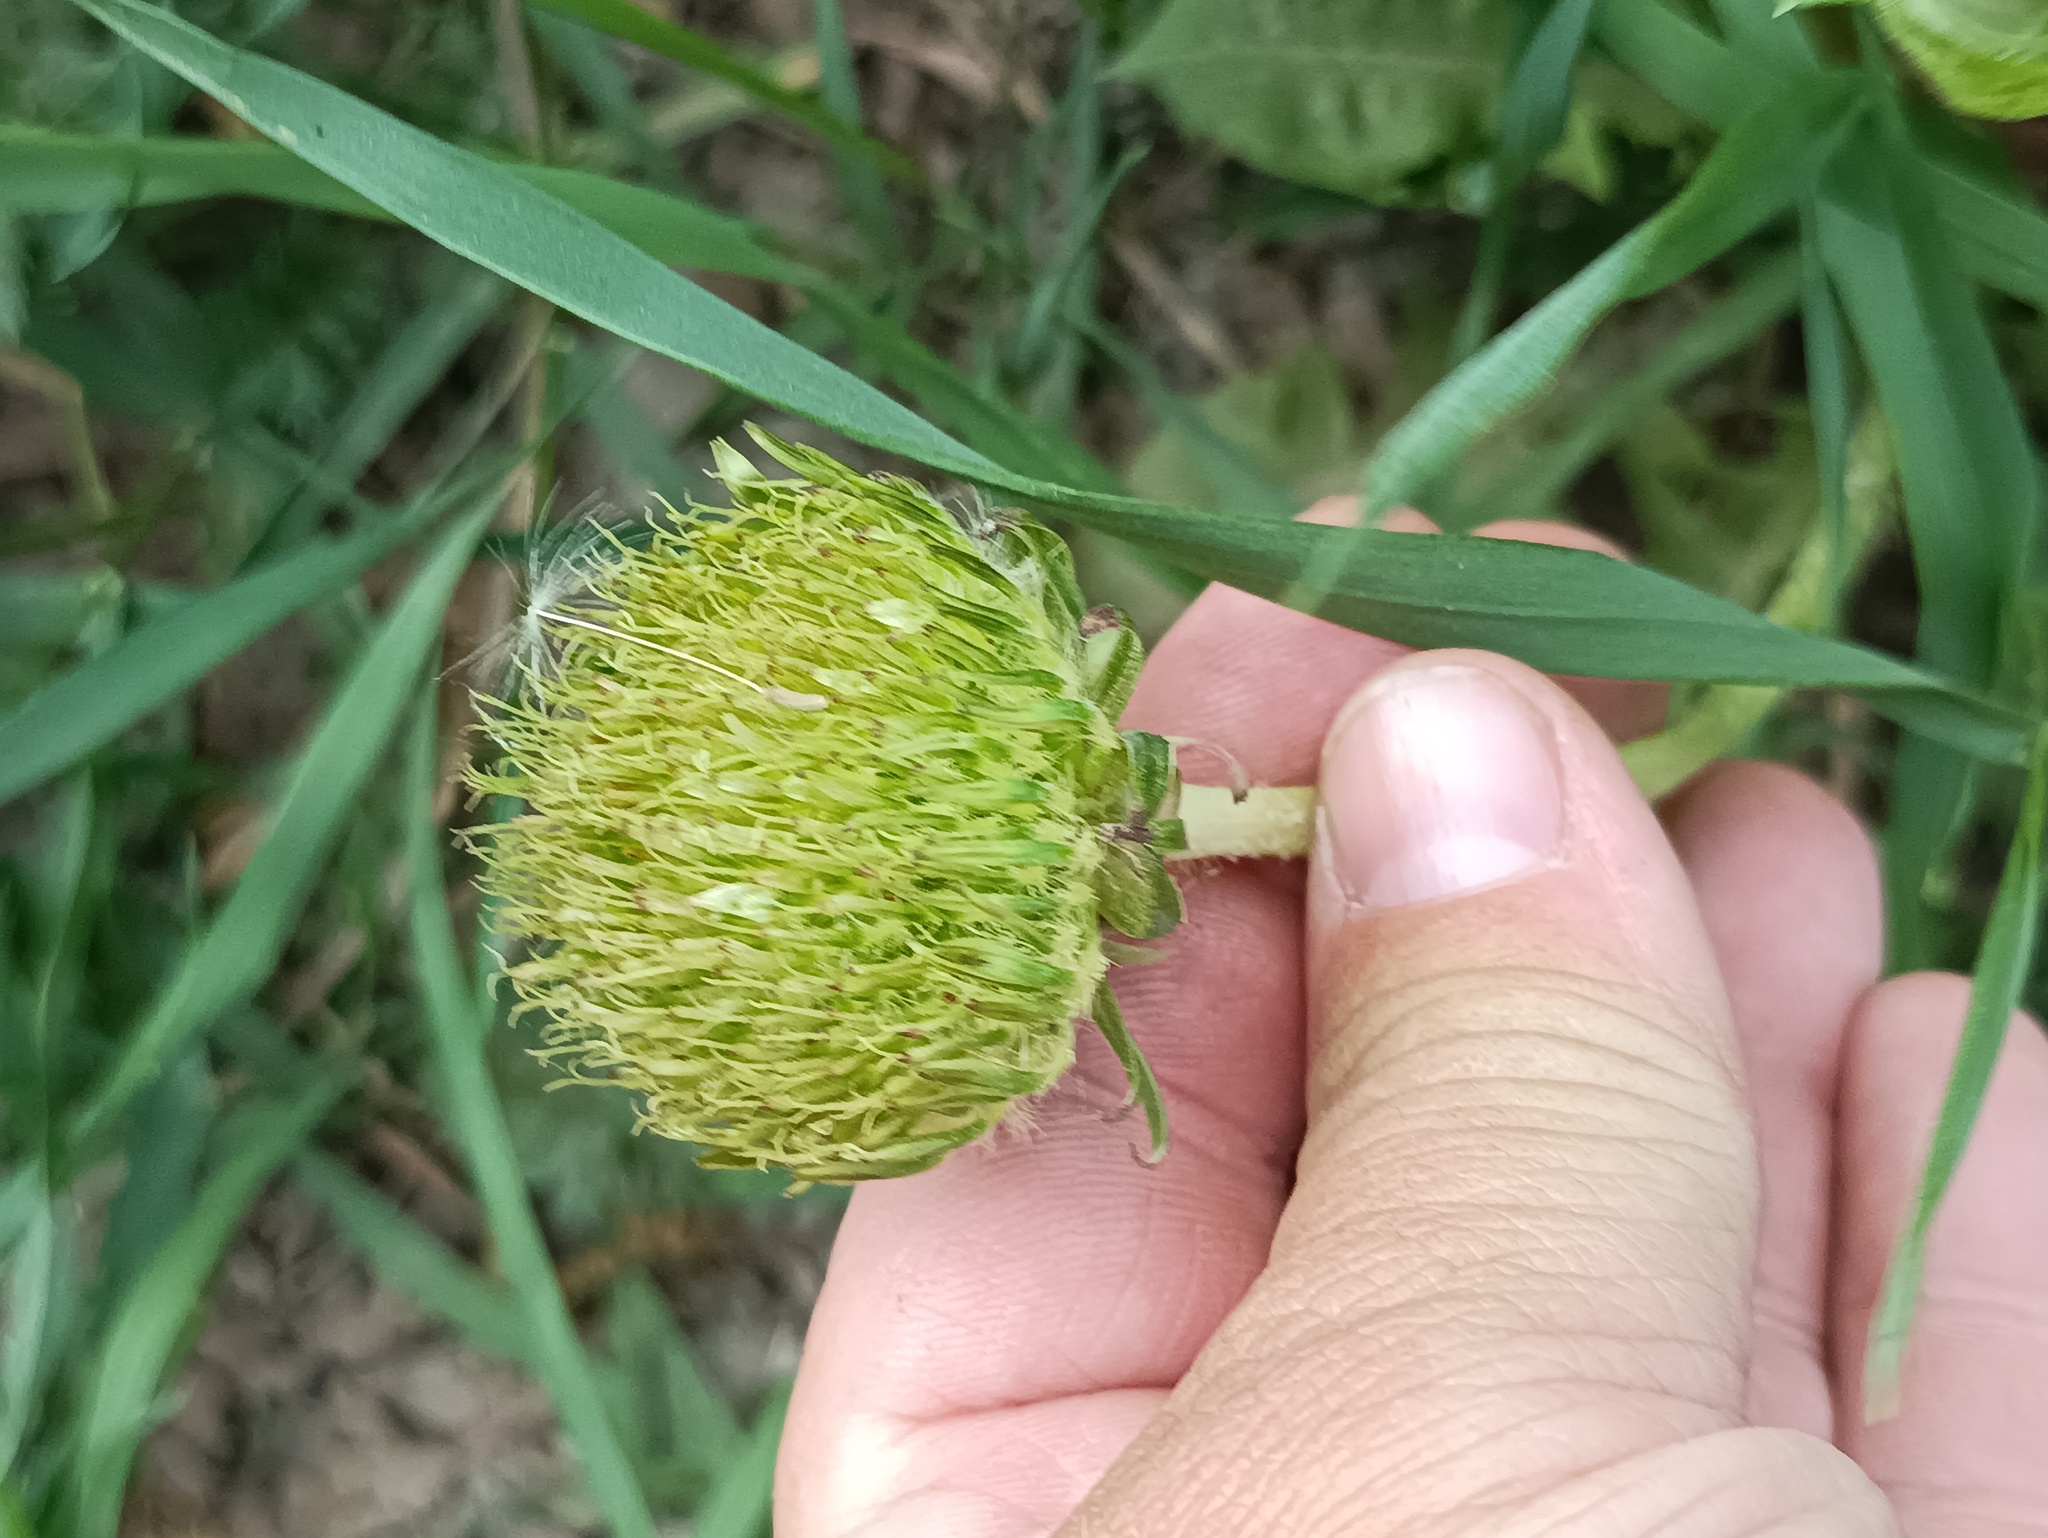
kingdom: Plantae
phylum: Tracheophyta
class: Magnoliopsida
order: Asterales
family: Asteraceae
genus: Taraxacum
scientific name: Taraxacum officinale
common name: Common dandelion
